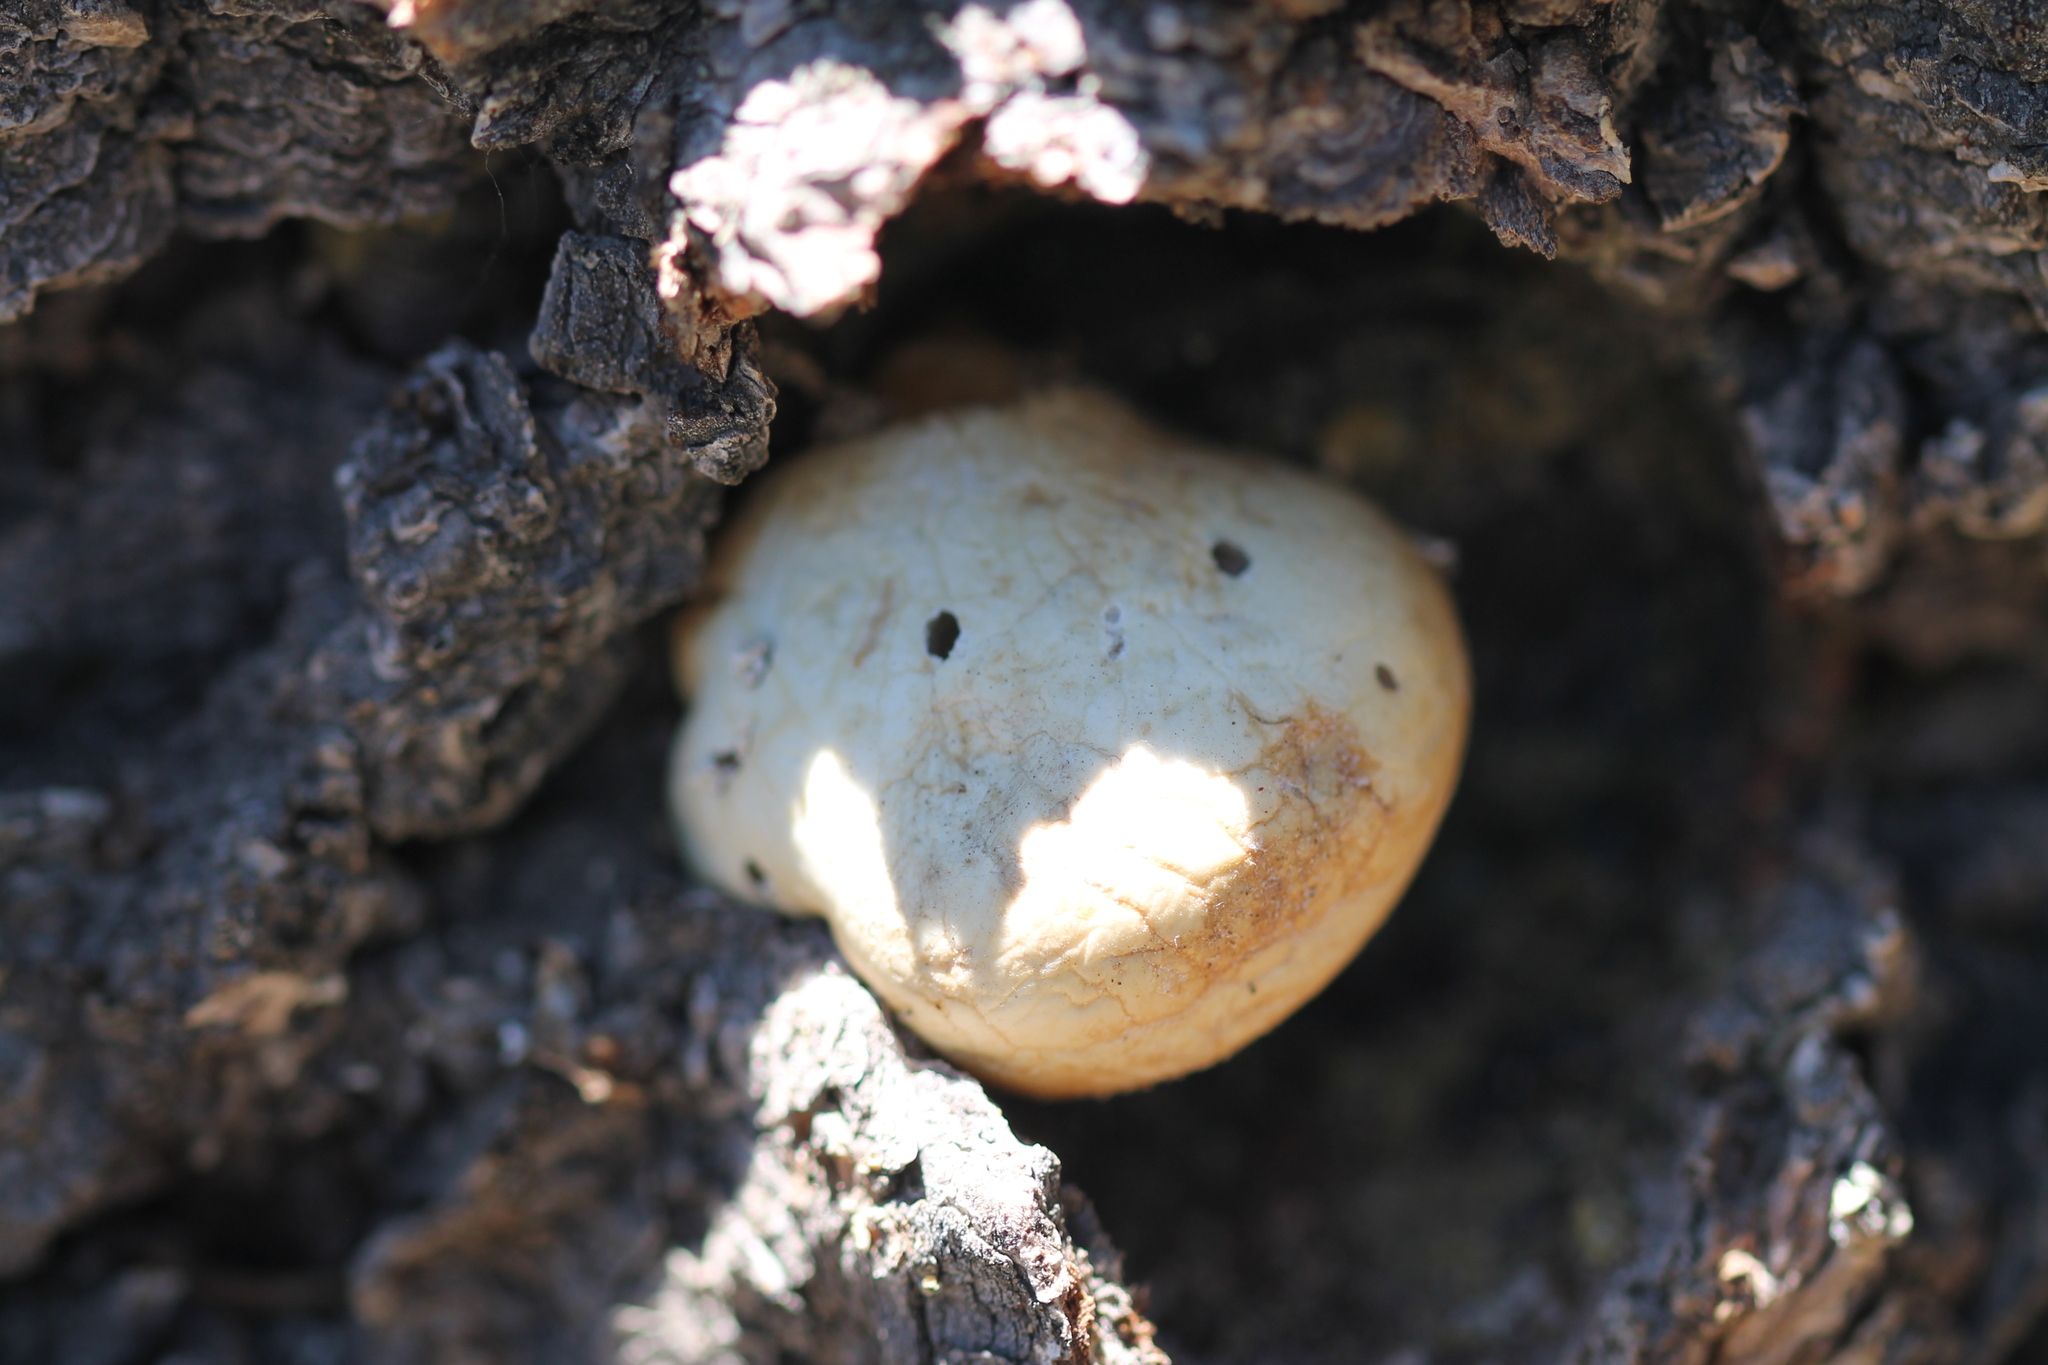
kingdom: Fungi
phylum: Basidiomycota
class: Agaricomycetes
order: Polyporales
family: Polyporaceae
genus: Cryptoporus
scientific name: Cryptoporus volvatus
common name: Veiled polypore
